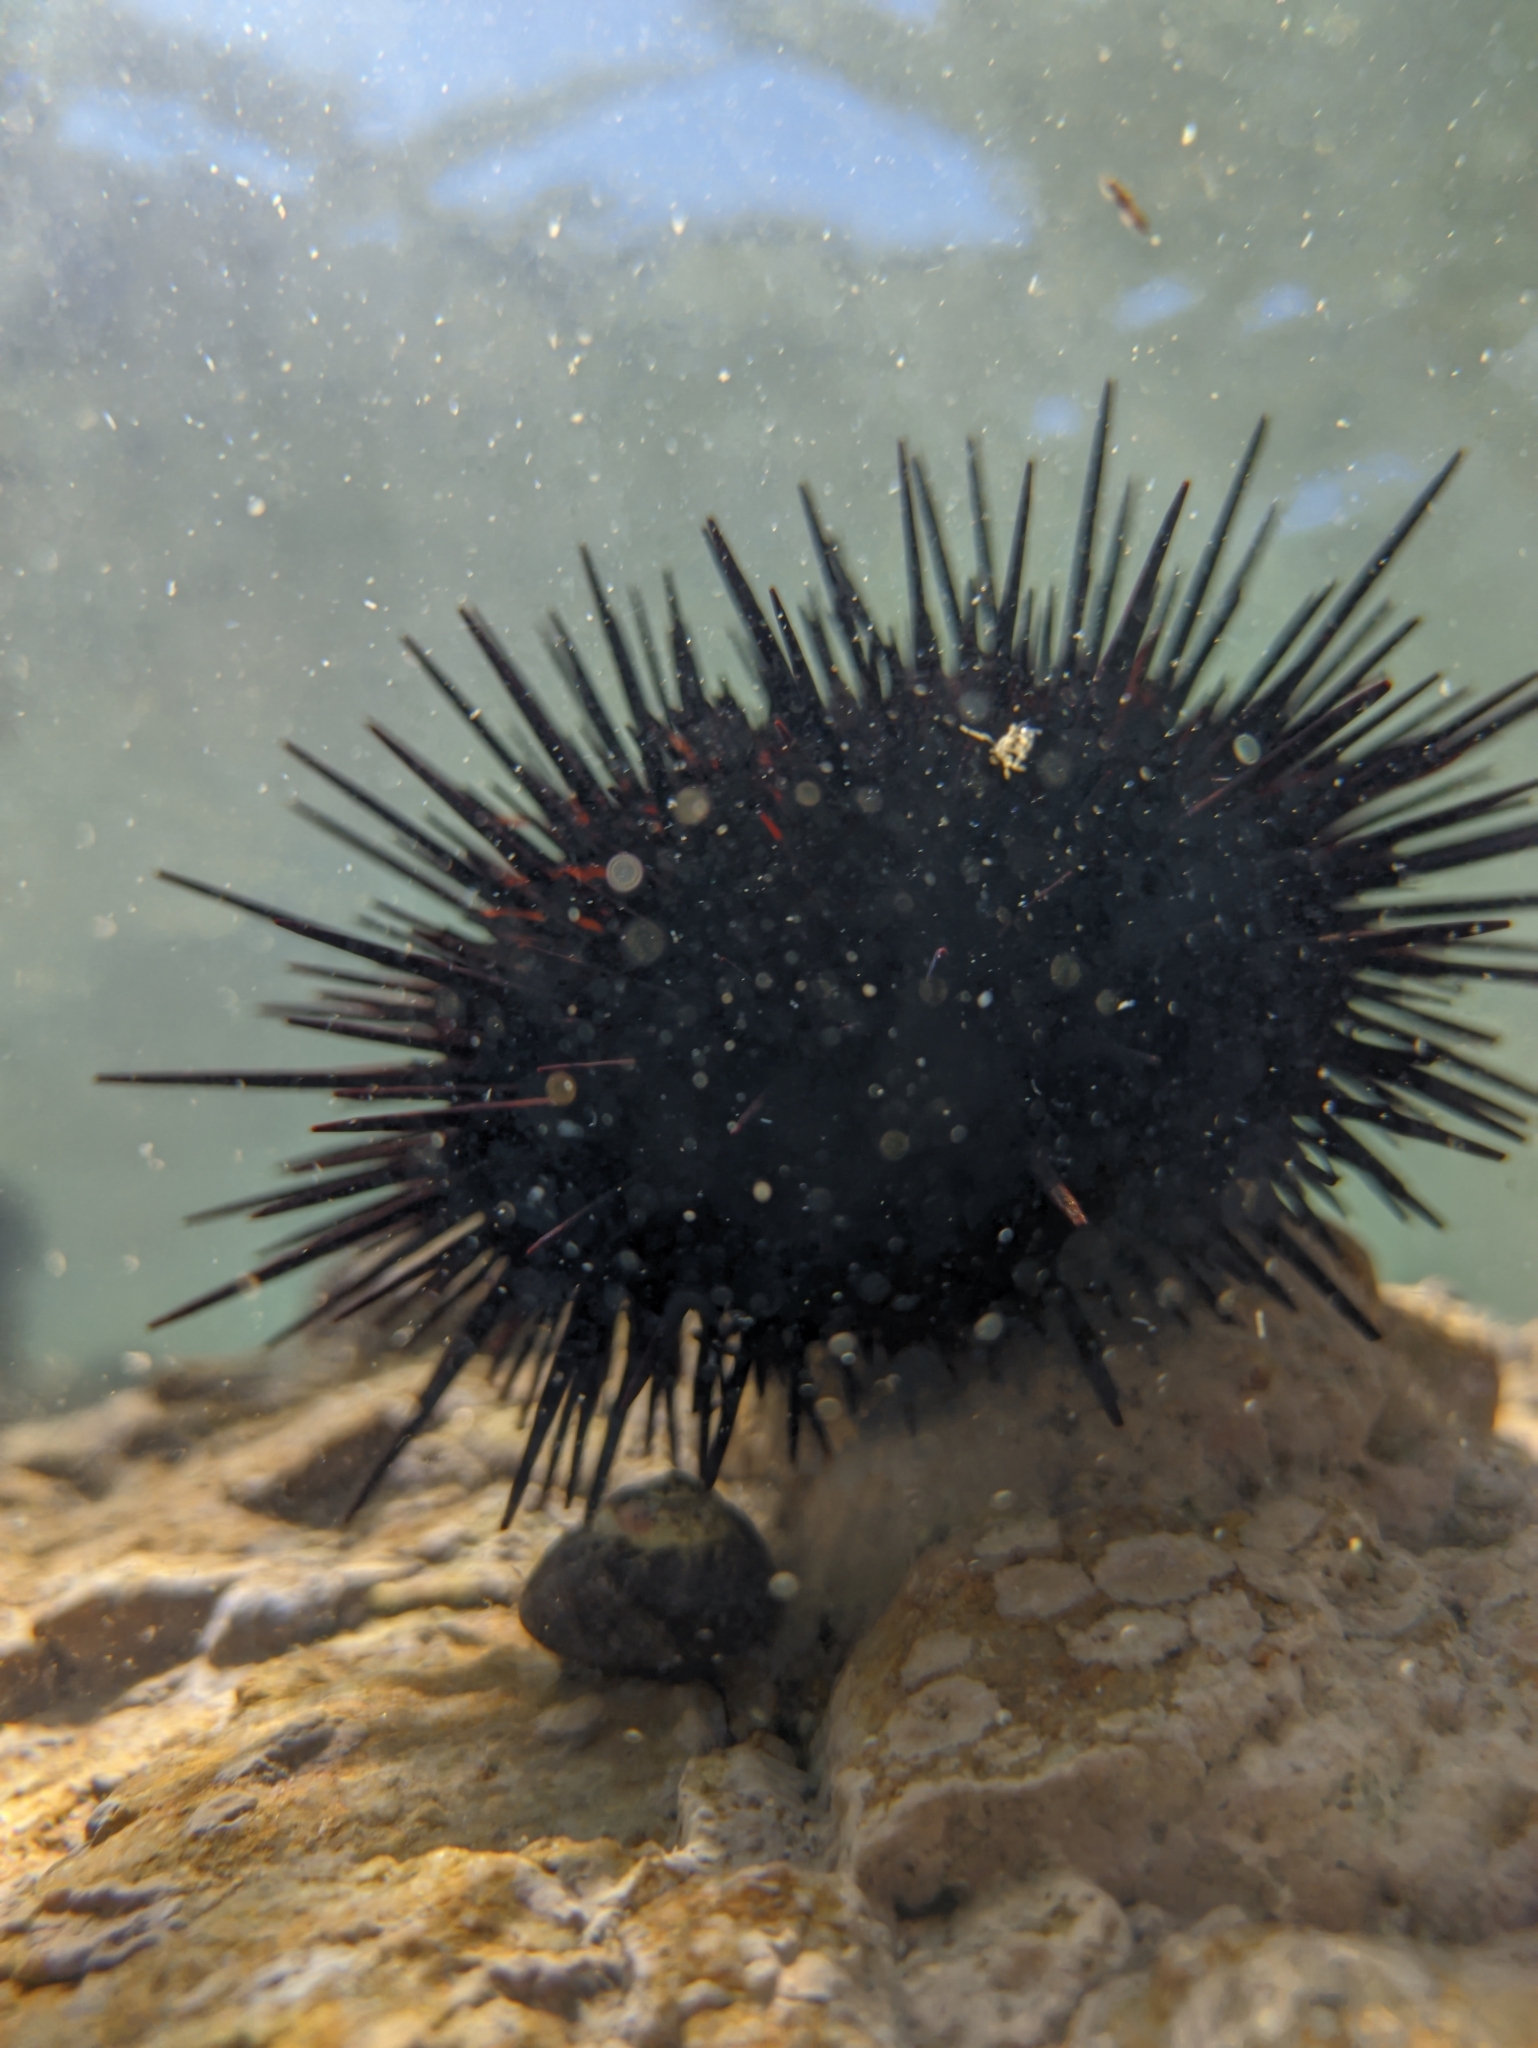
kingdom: Animalia
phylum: Echinodermata
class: Echinoidea
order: Camarodonta
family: Strongylocentrotidae
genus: Mesocentrotus
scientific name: Mesocentrotus nudus
